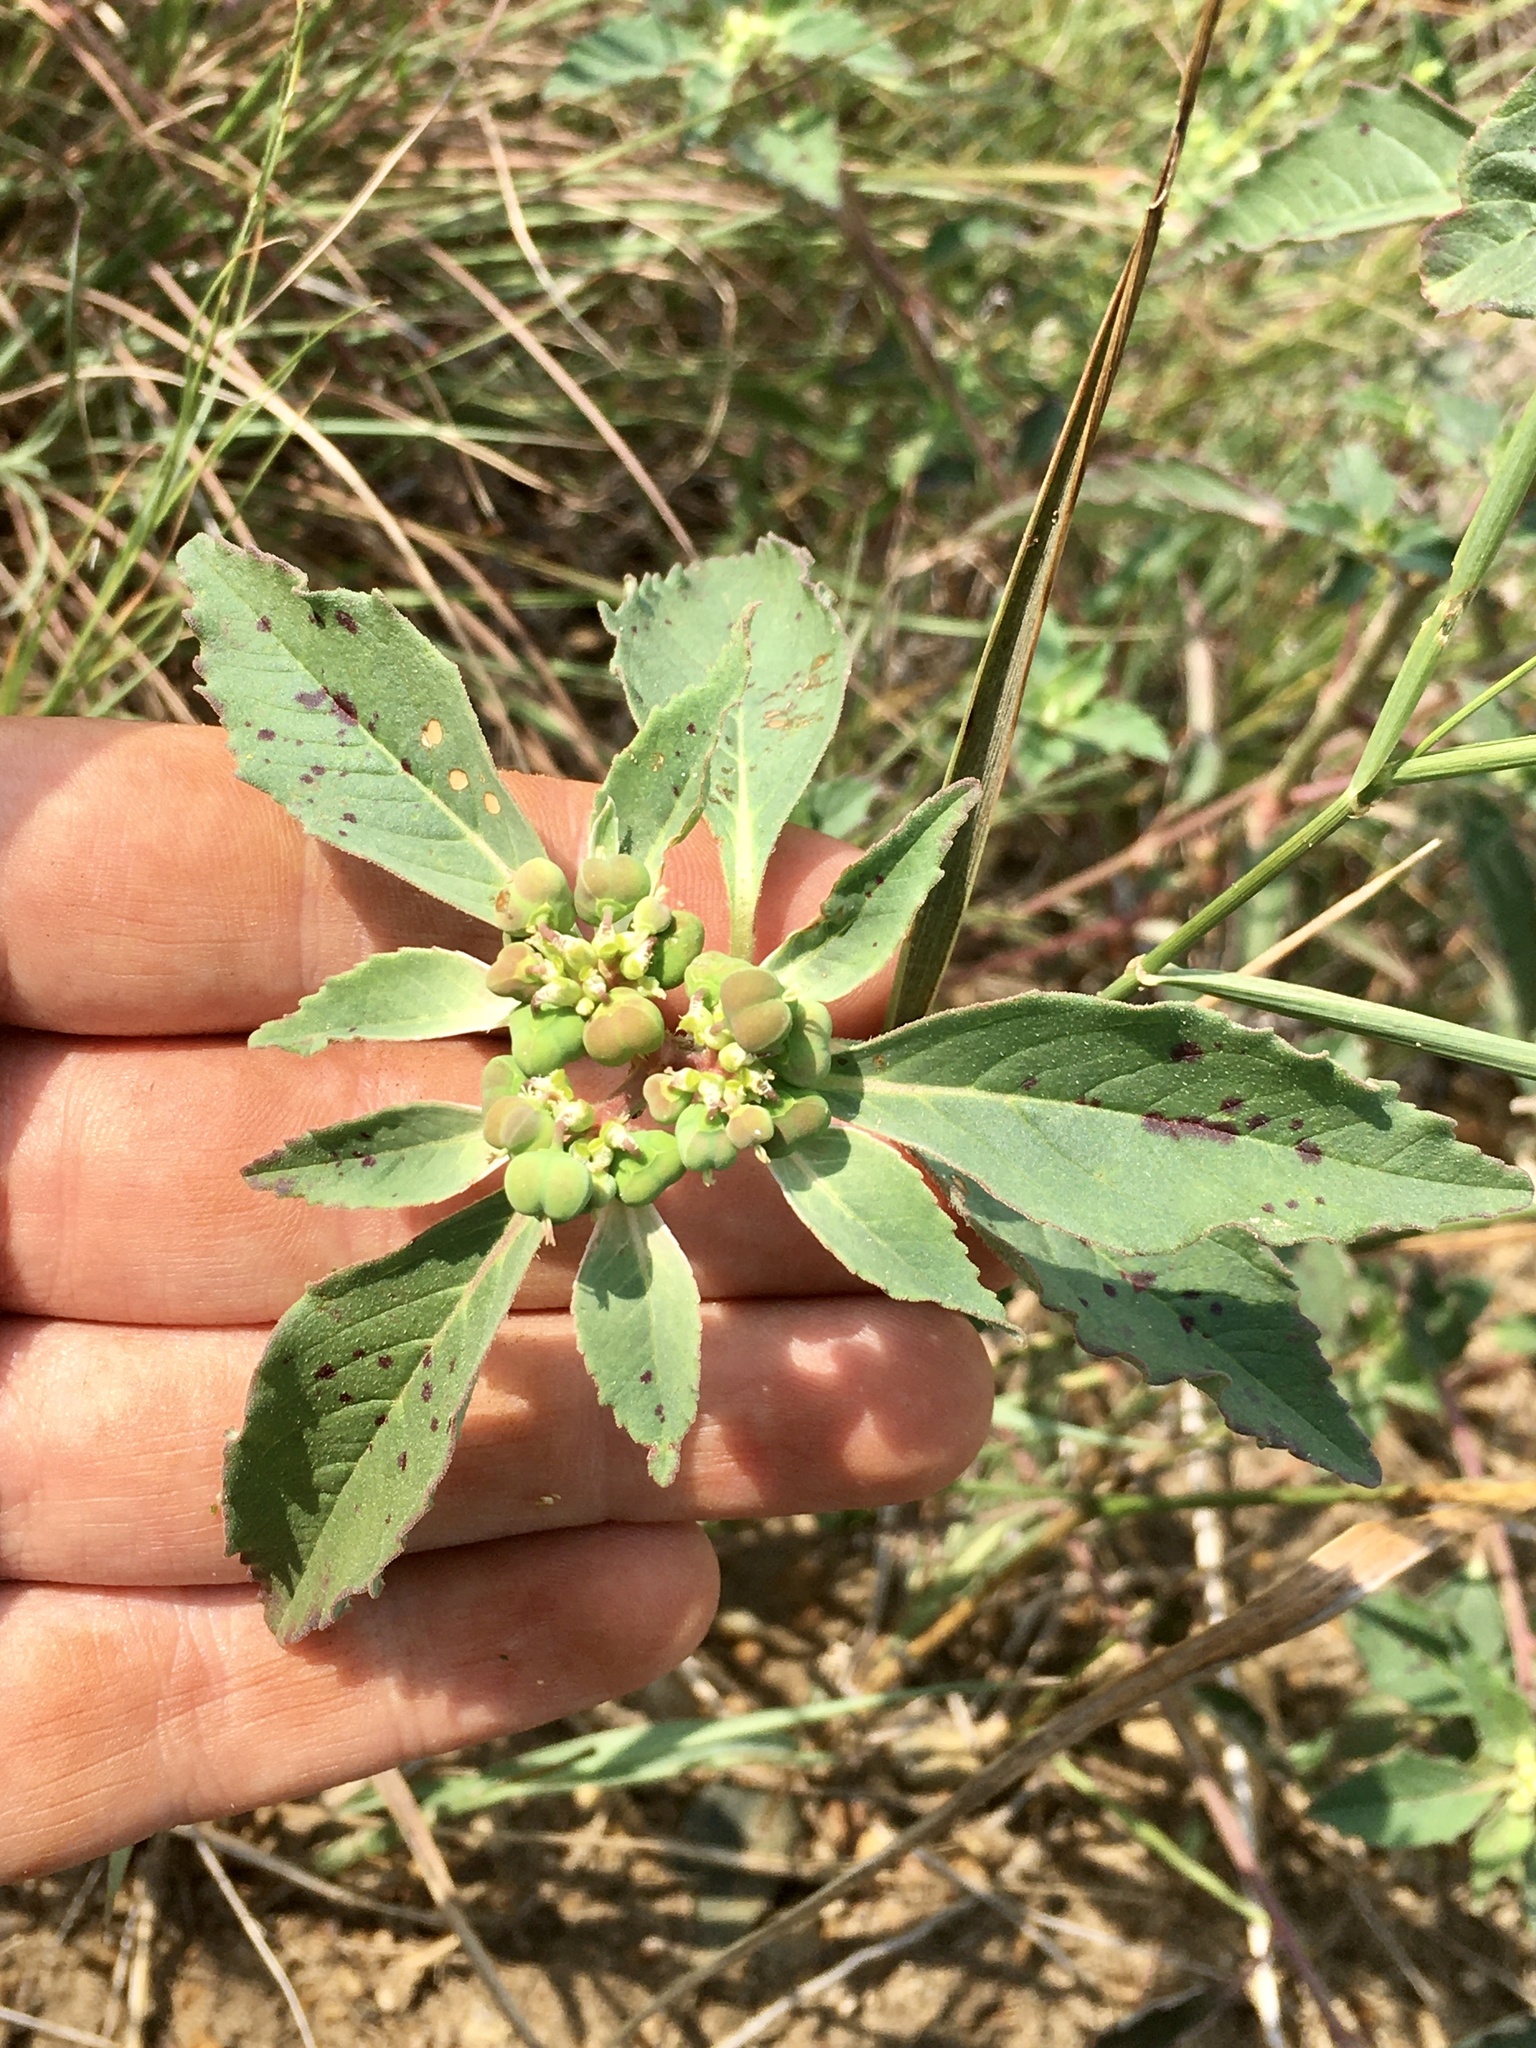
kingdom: Plantae
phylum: Tracheophyta
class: Magnoliopsida
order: Malpighiales
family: Euphorbiaceae
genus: Euphorbia
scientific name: Euphorbia dentata
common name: Dentate spurge
